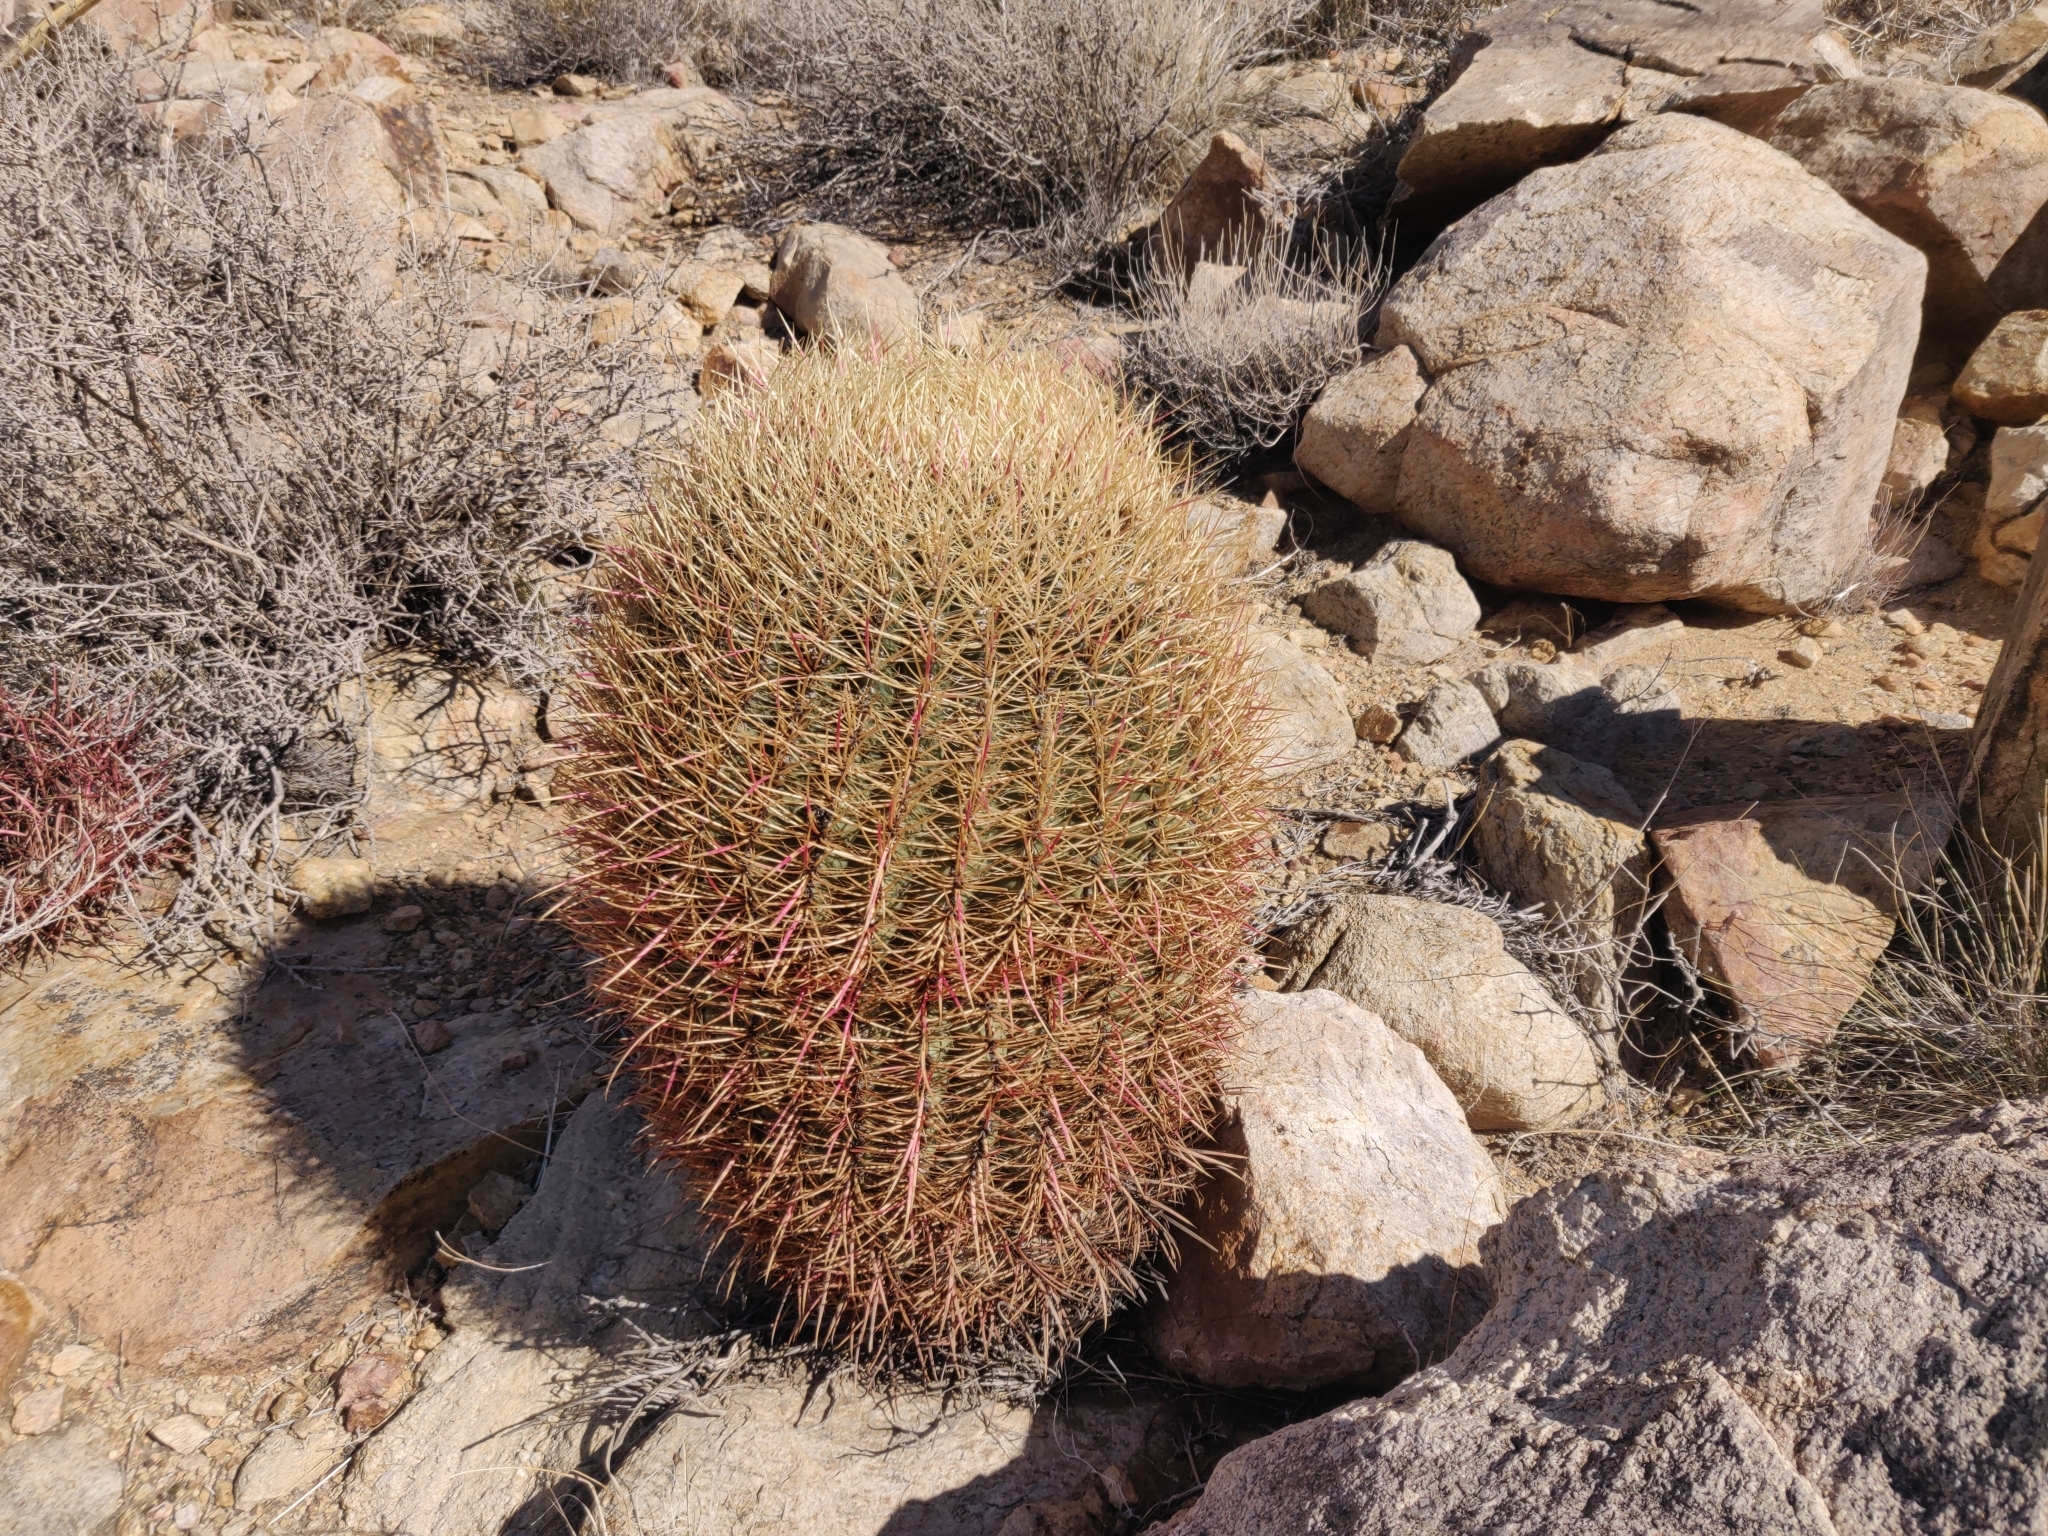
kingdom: Plantae
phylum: Tracheophyta
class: Magnoliopsida
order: Caryophyllales
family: Cactaceae
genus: Ferocactus
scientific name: Ferocactus cylindraceus
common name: California barrel cactus
